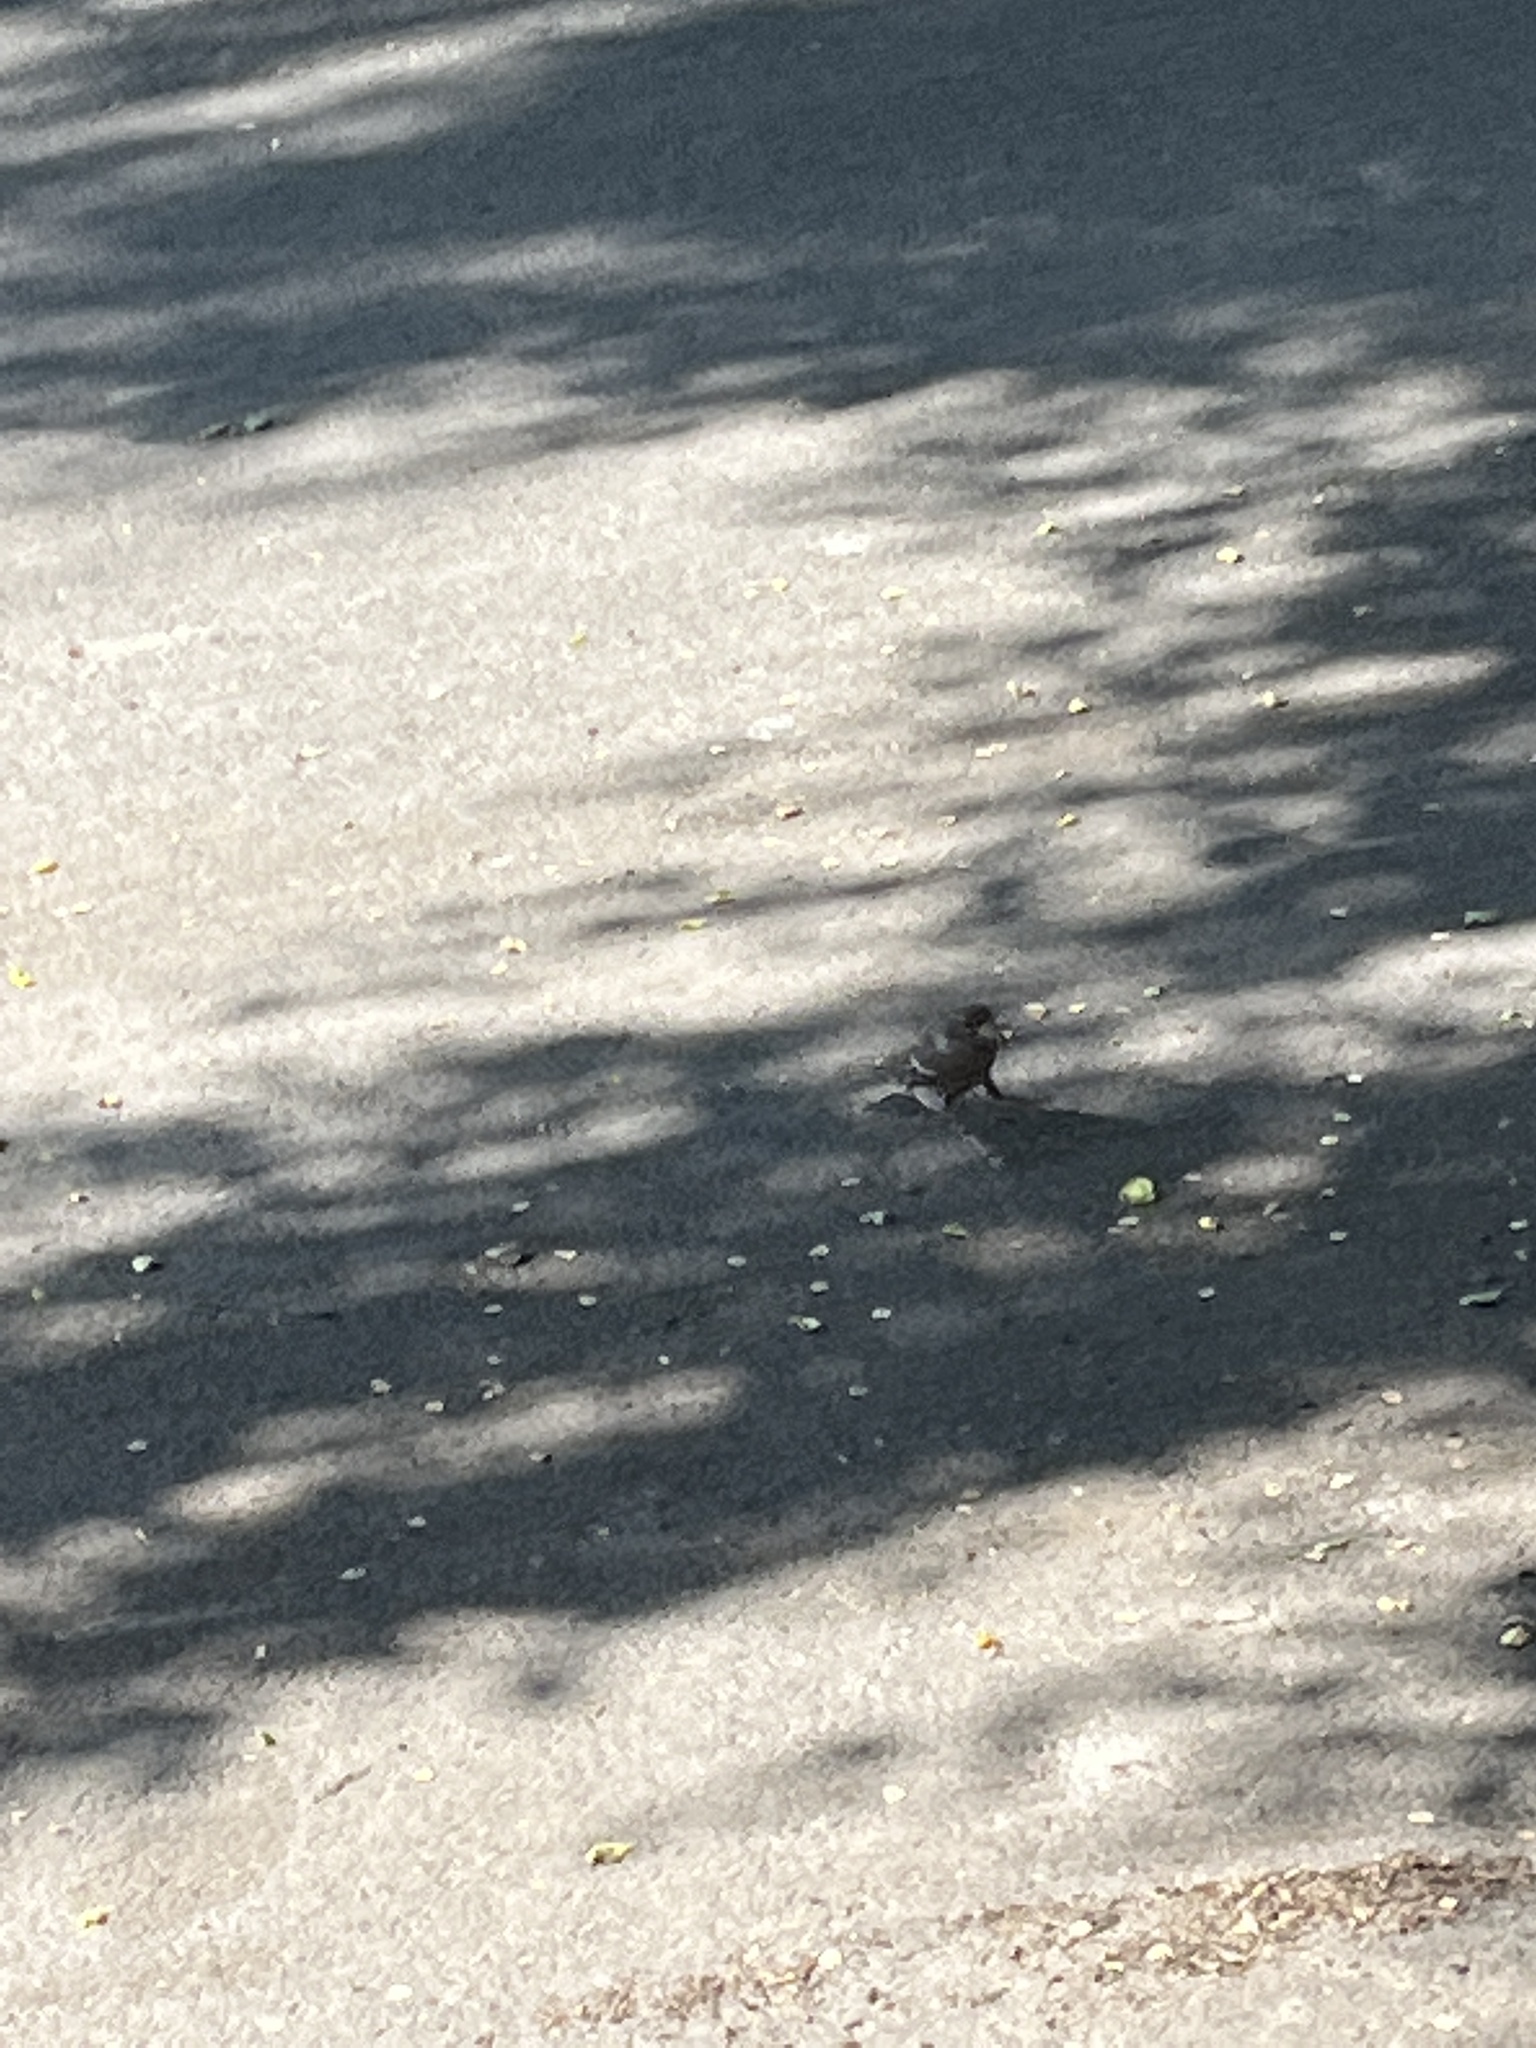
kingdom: Animalia
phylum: Chordata
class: Aves
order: Passeriformes
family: Passeridae
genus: Passer
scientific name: Passer domesticus
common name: House sparrow
